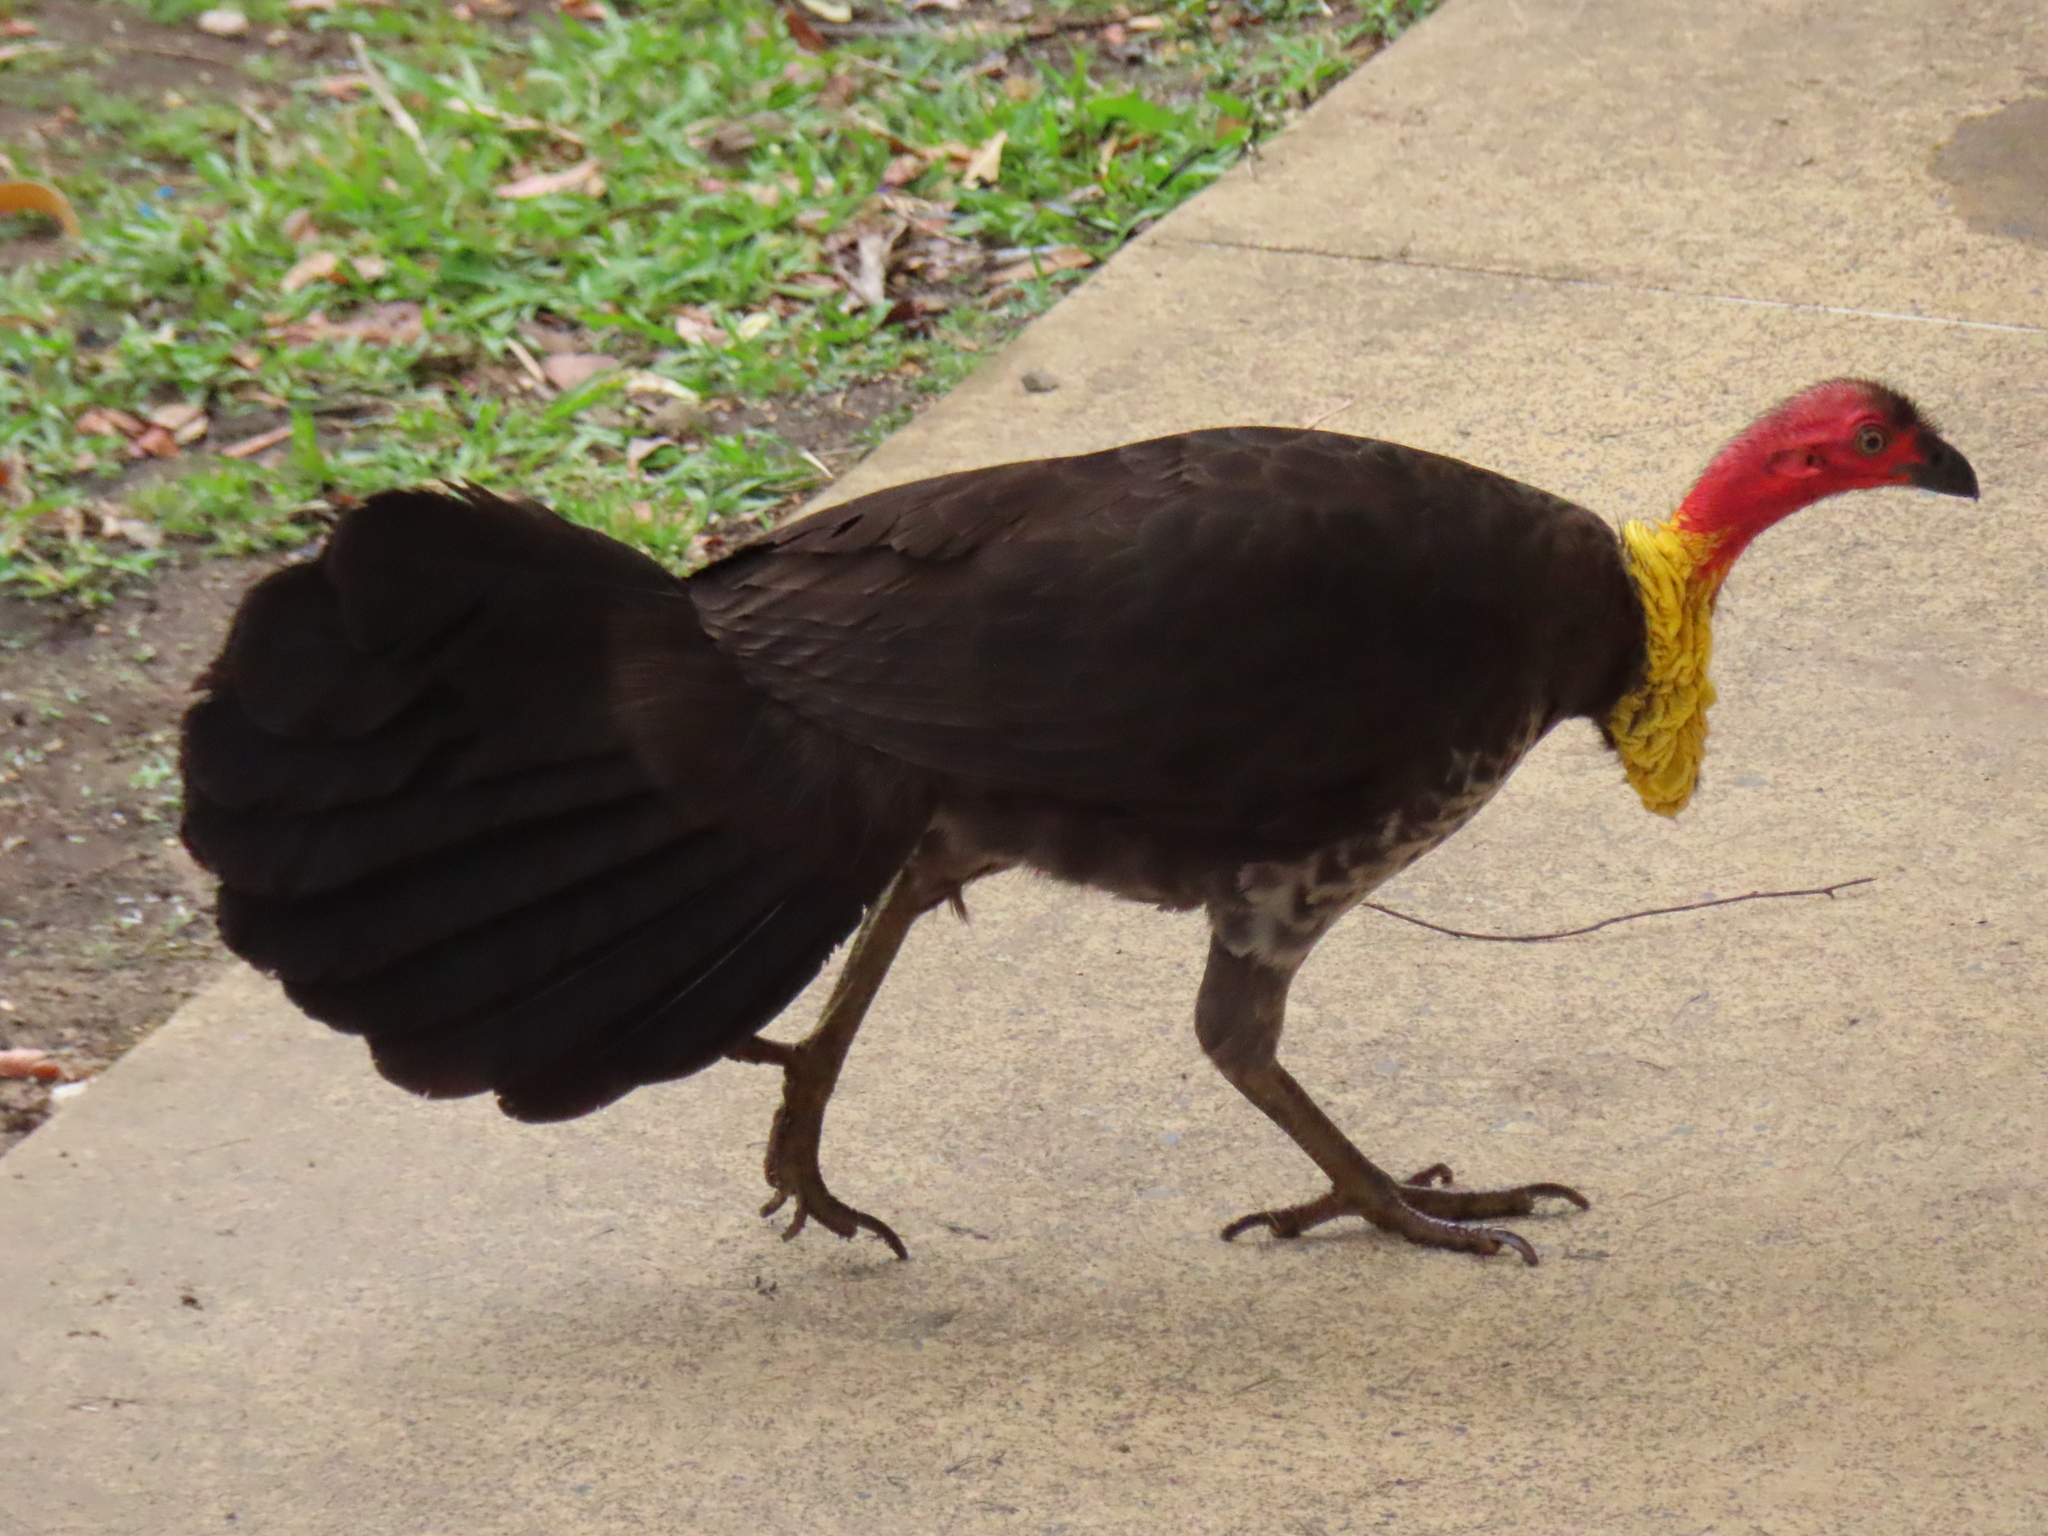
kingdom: Animalia
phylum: Chordata
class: Aves
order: Galliformes
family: Megapodiidae
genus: Alectura
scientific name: Alectura lathami
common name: Australian brushturkey
